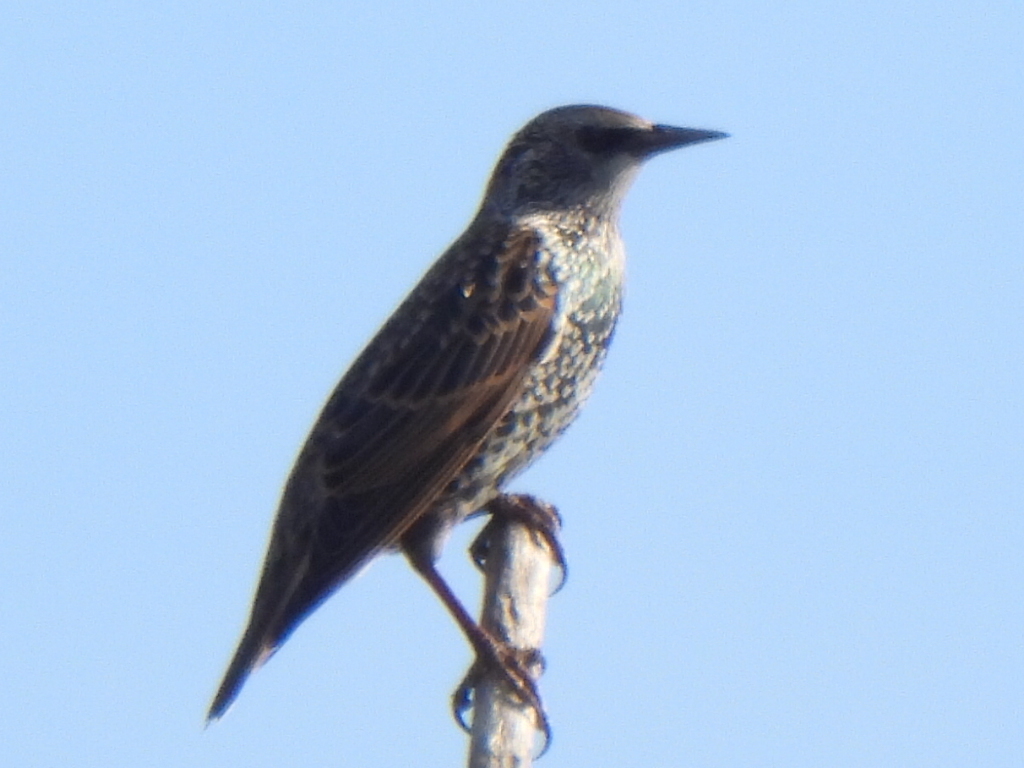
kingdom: Animalia
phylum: Chordata
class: Aves
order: Passeriformes
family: Sturnidae
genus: Sturnus
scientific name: Sturnus vulgaris
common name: Common starling
